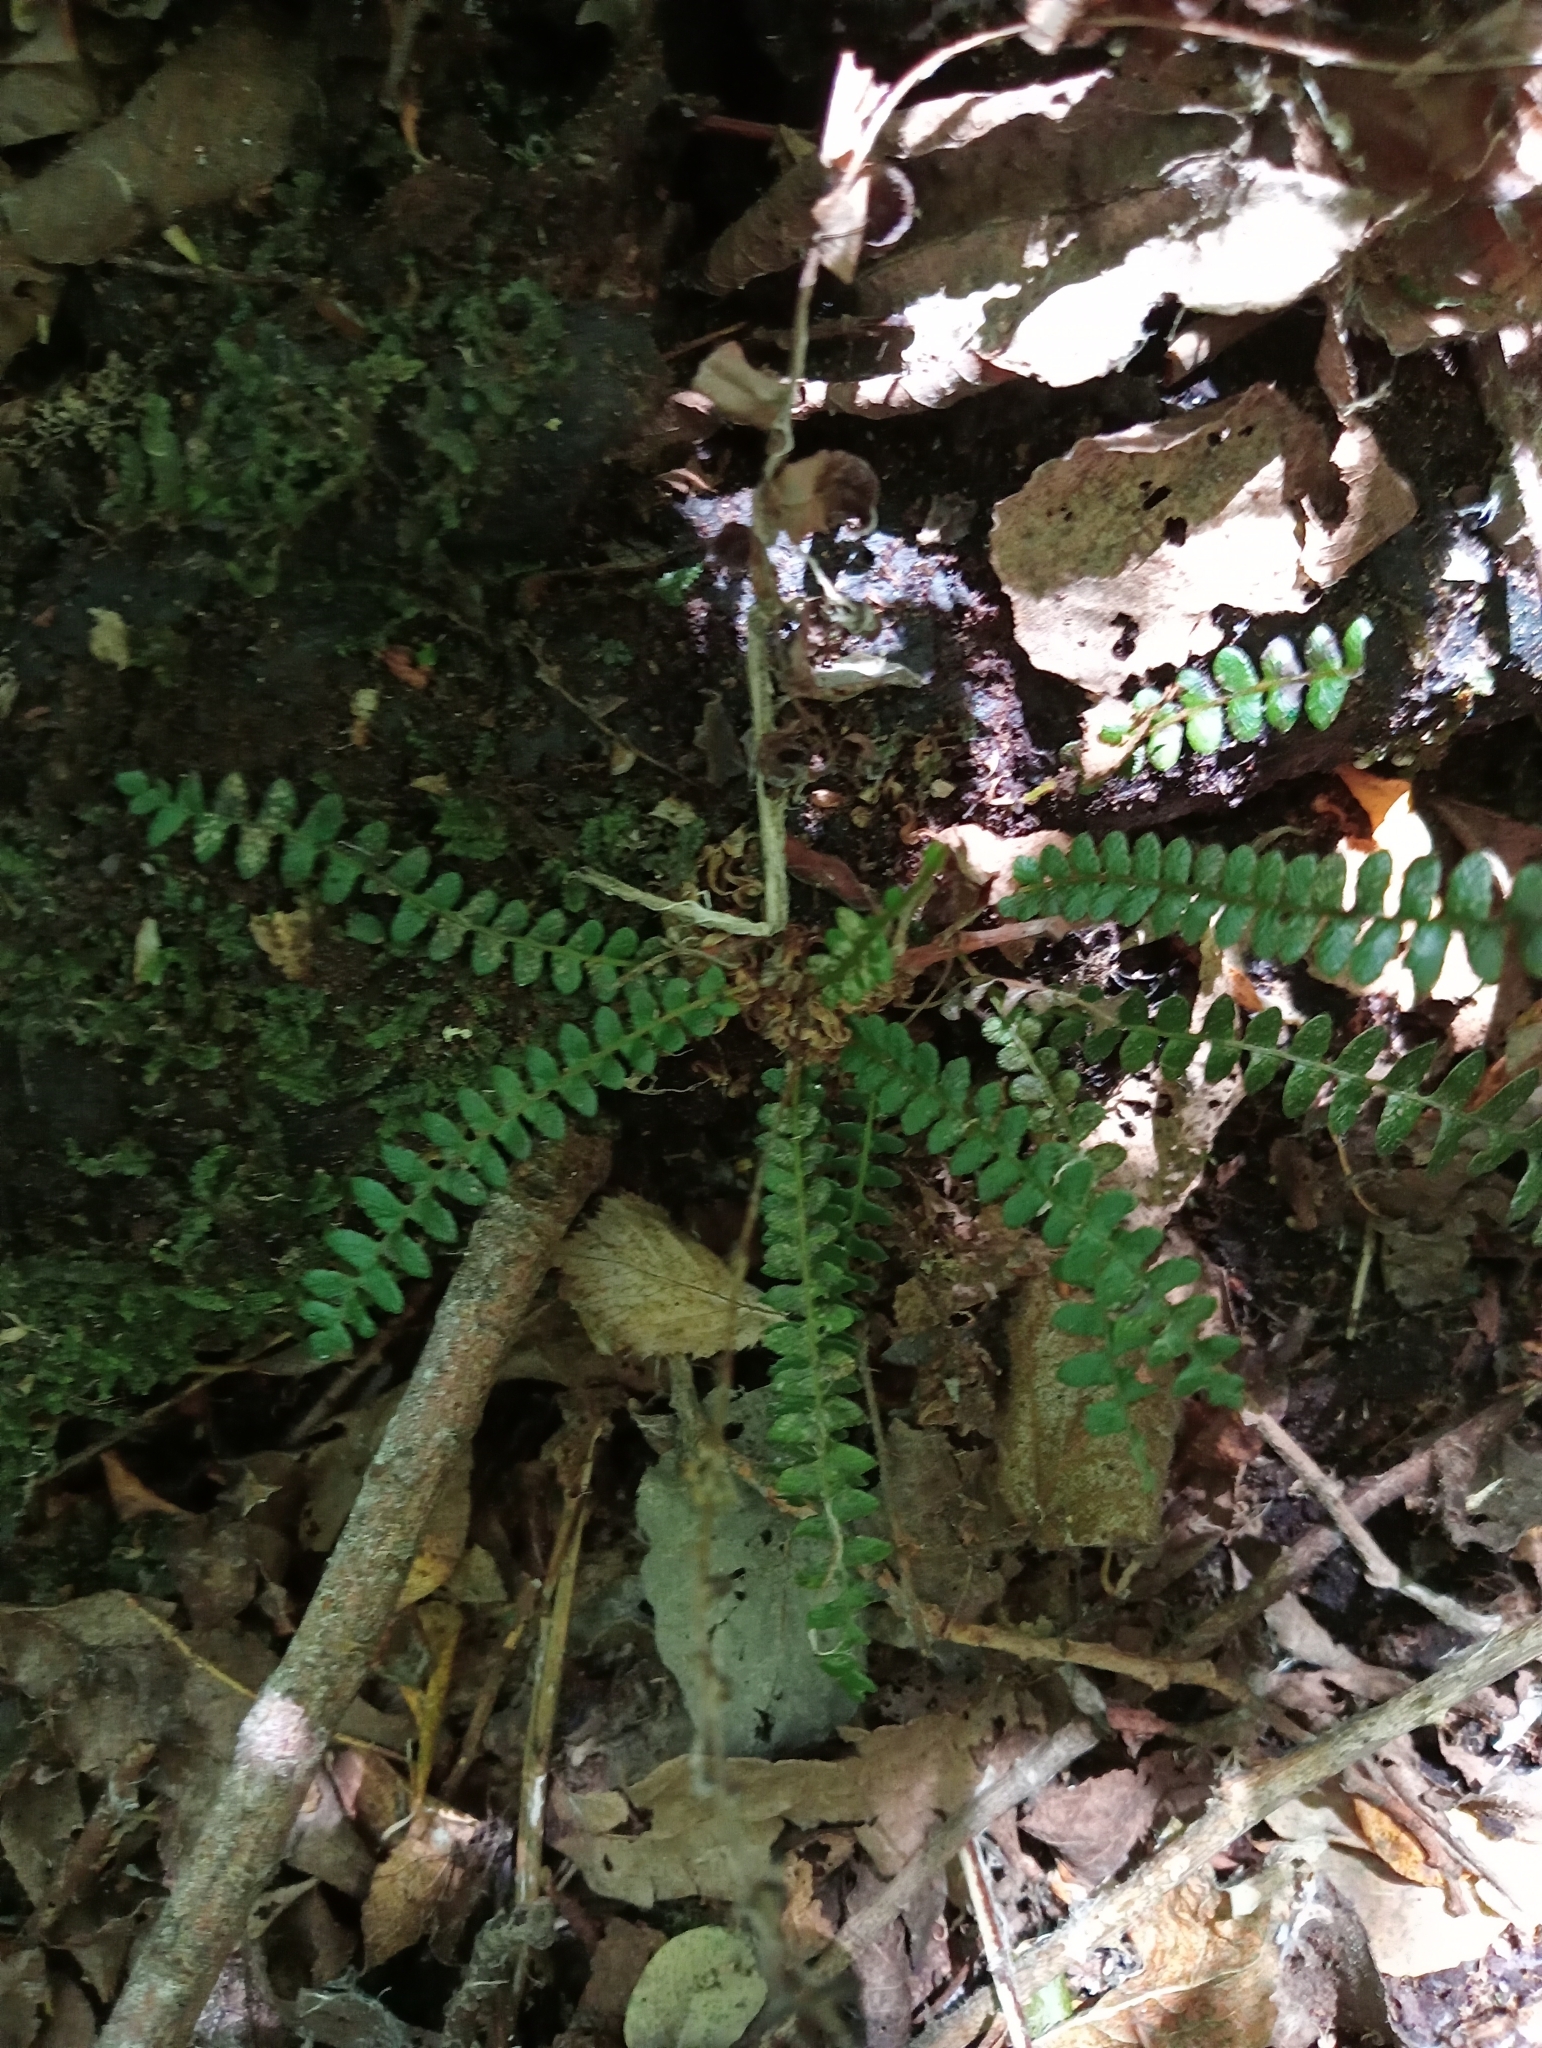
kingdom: Plantae
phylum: Tracheophyta
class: Polypodiopsida
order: Polypodiales
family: Blechnaceae
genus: Austroblechnum
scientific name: Austroblechnum penna-marina
